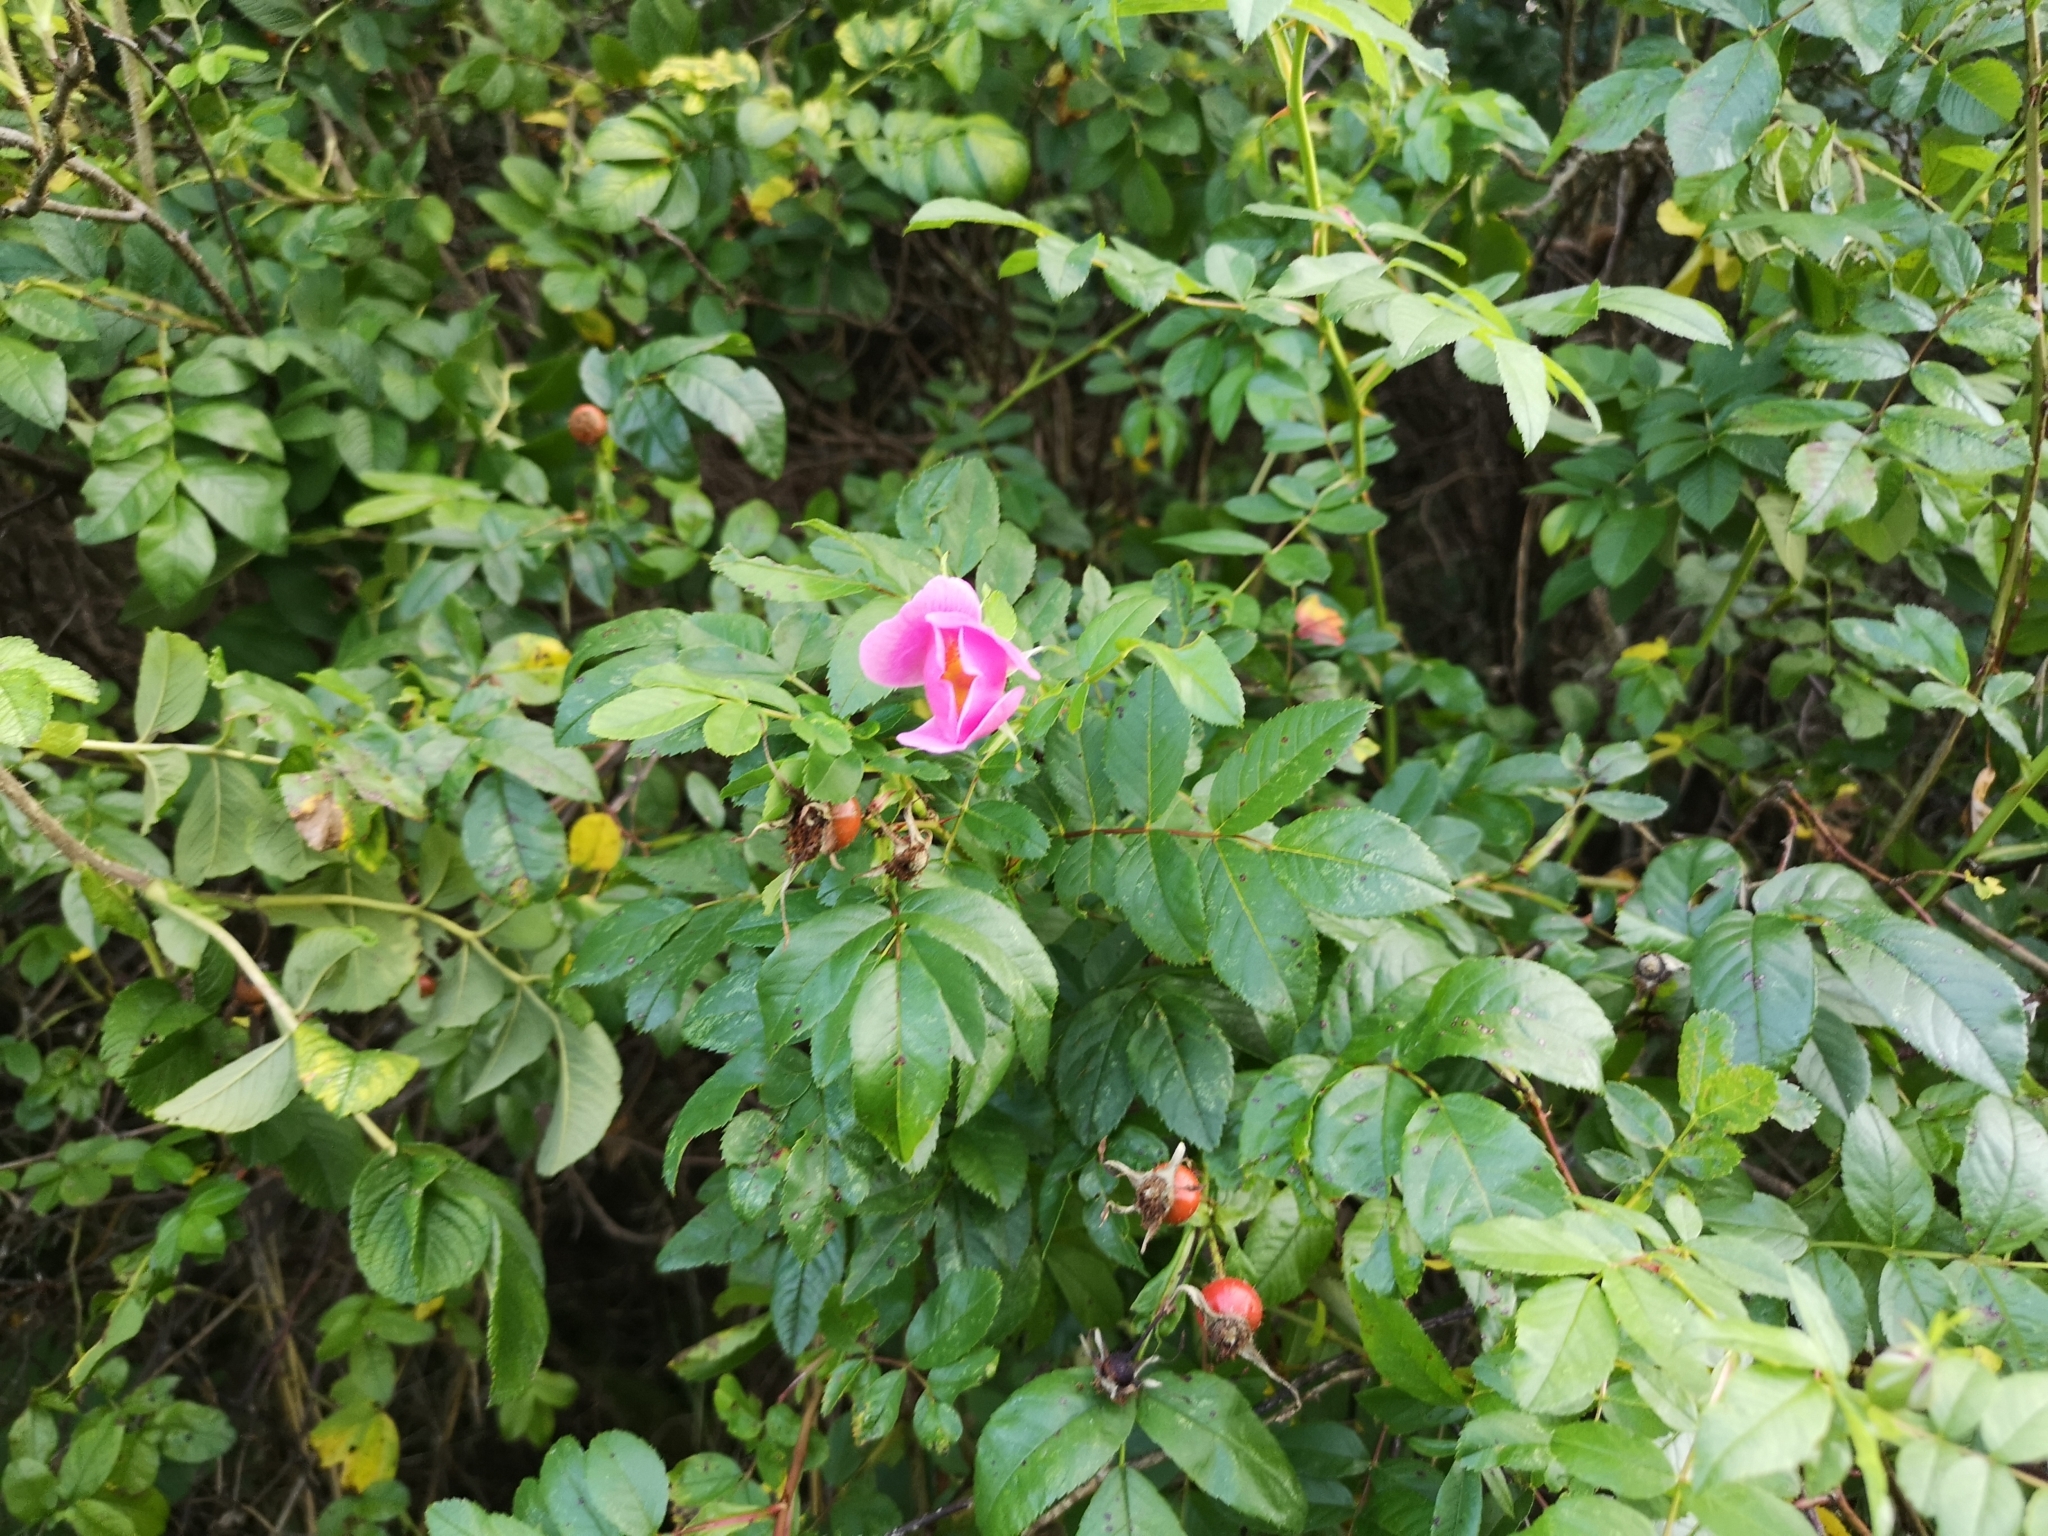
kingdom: Plantae
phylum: Tracheophyta
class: Magnoliopsida
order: Rosales
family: Rosaceae
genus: Rosa
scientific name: Rosa rugosa
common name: Japanese rose
